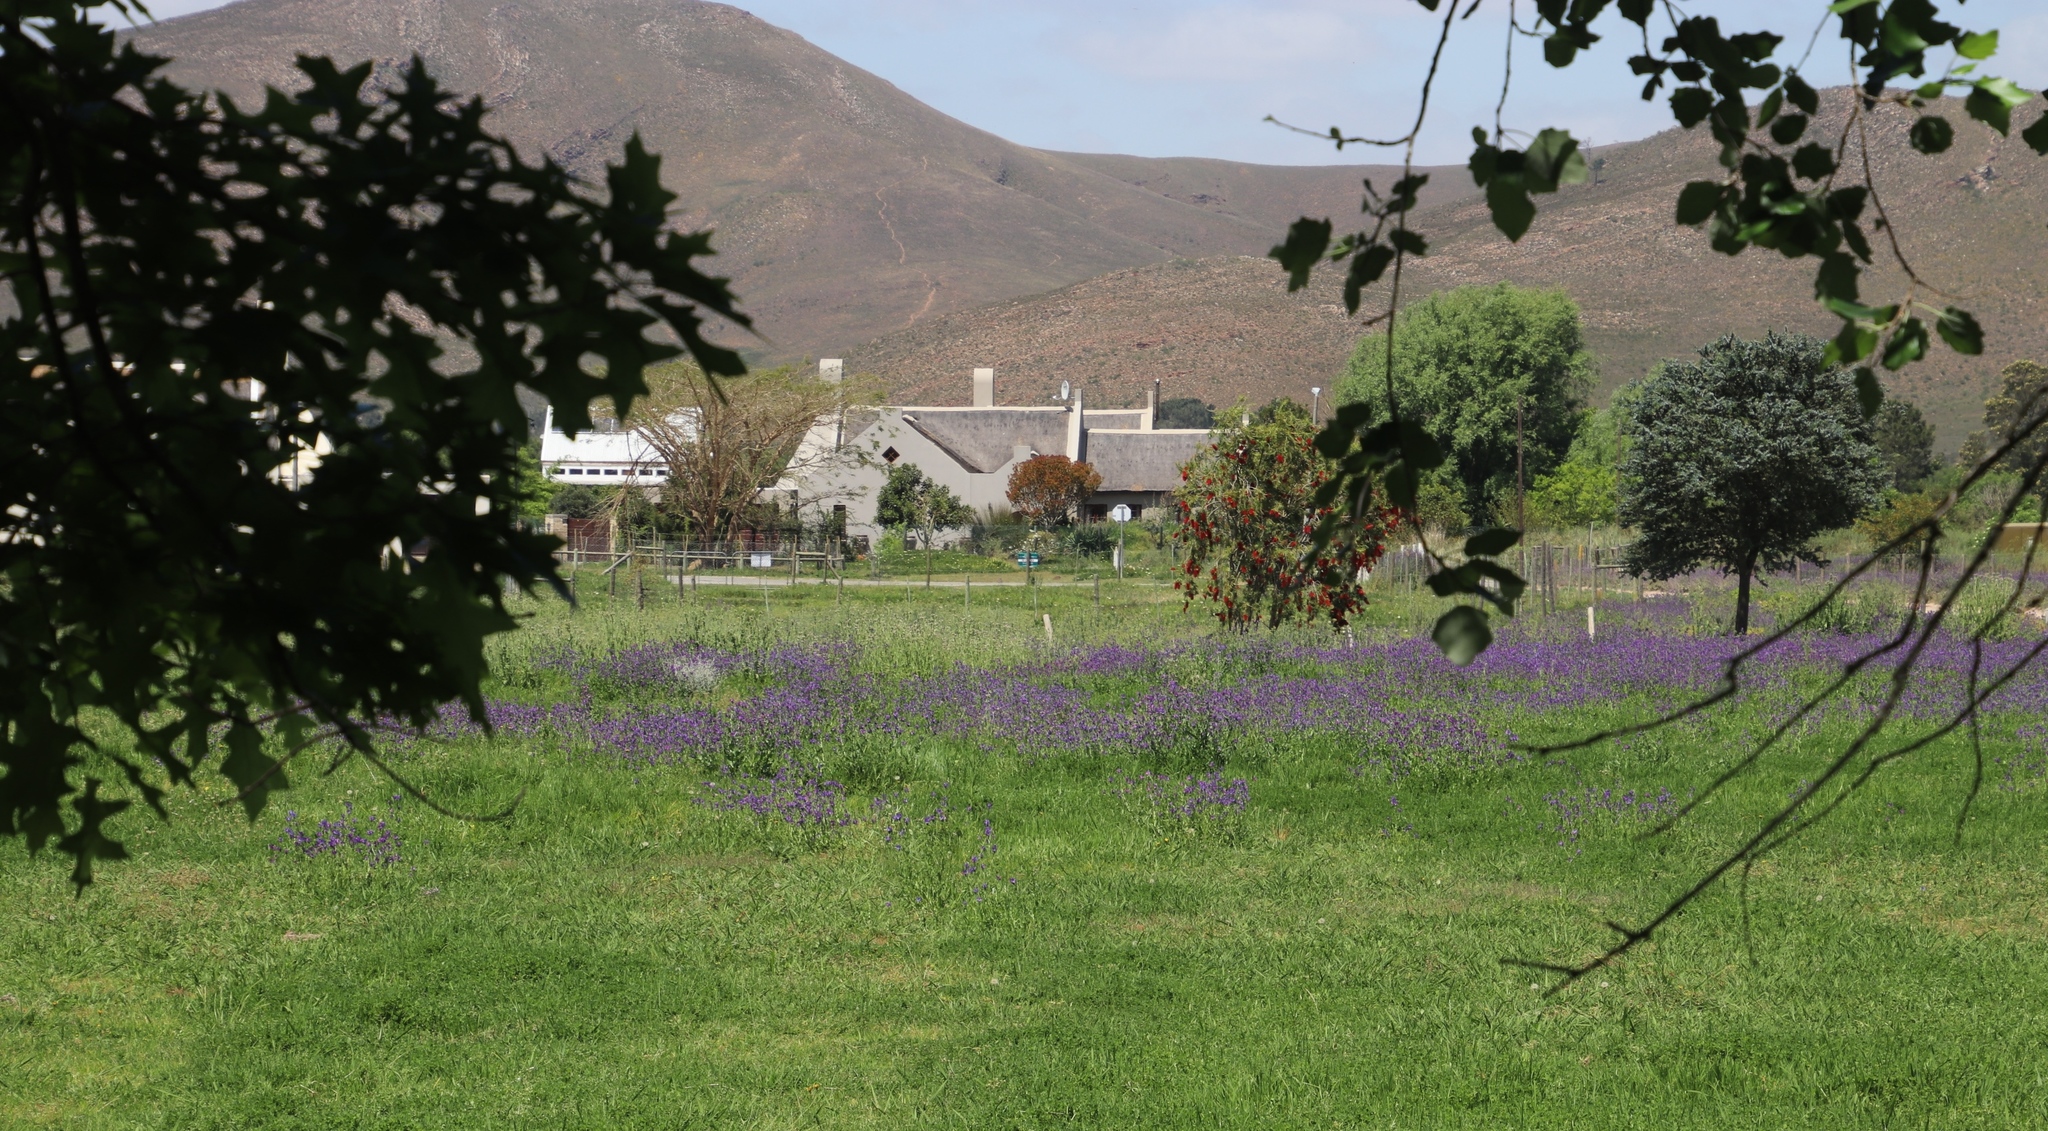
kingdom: Plantae
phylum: Tracheophyta
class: Magnoliopsida
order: Boraginales
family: Boraginaceae
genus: Echium
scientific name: Echium plantagineum
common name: Purple viper's-bugloss
